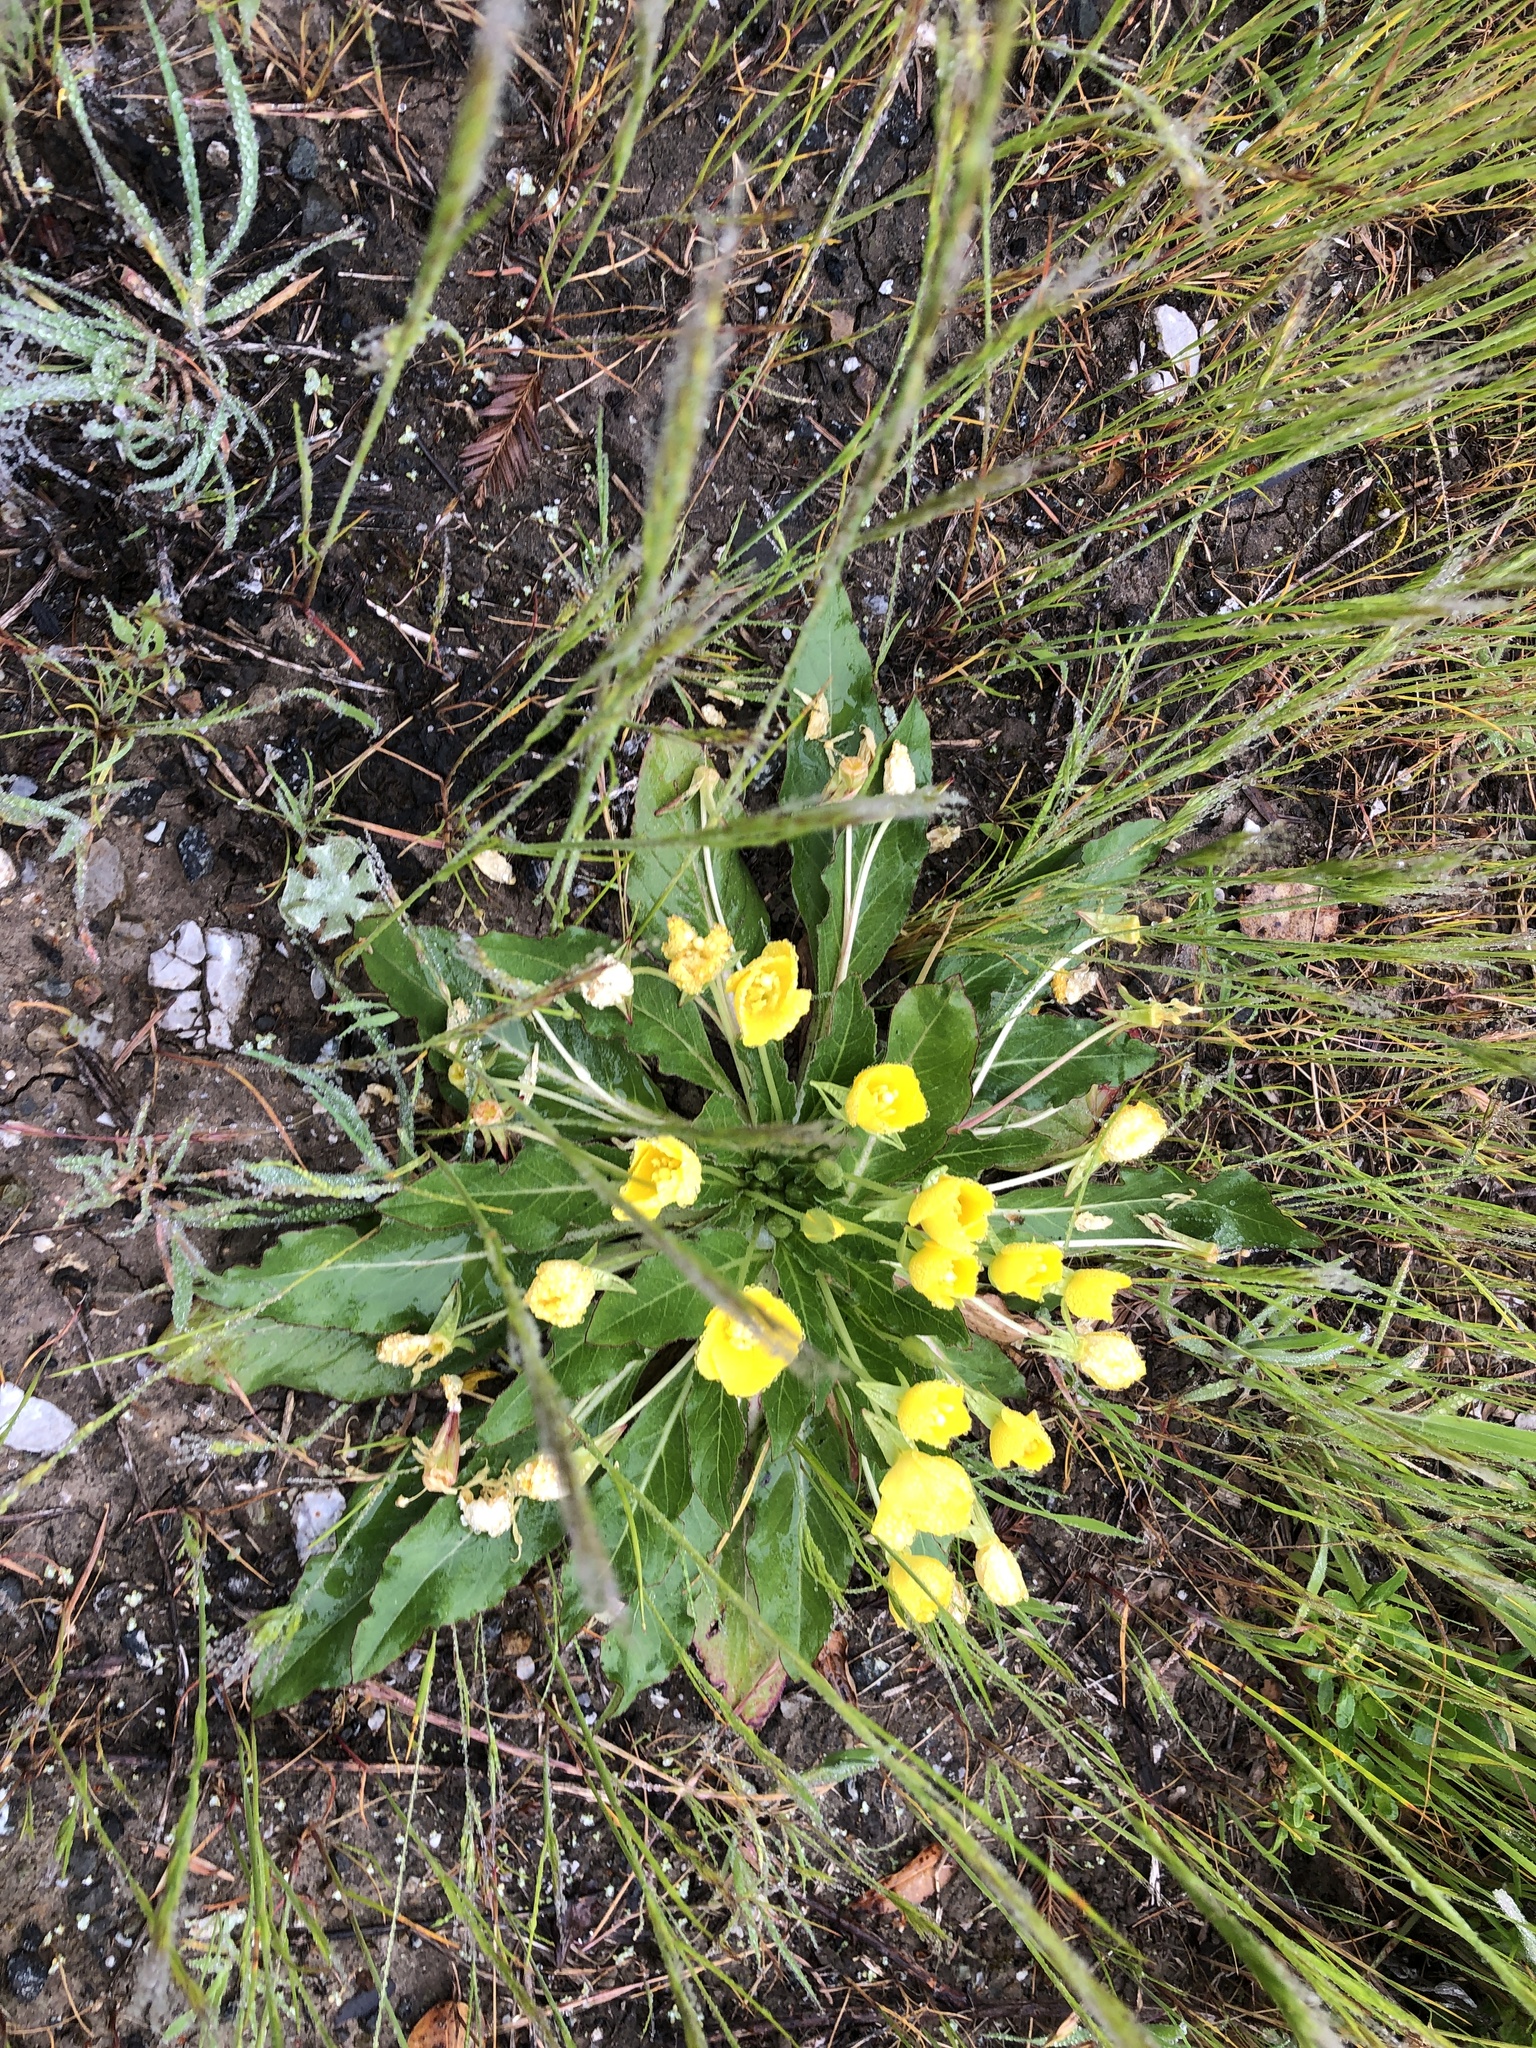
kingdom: Plantae
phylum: Tracheophyta
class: Magnoliopsida
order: Myrtales
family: Onagraceae
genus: Taraxia
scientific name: Taraxia ovata
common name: Goldeneggs
